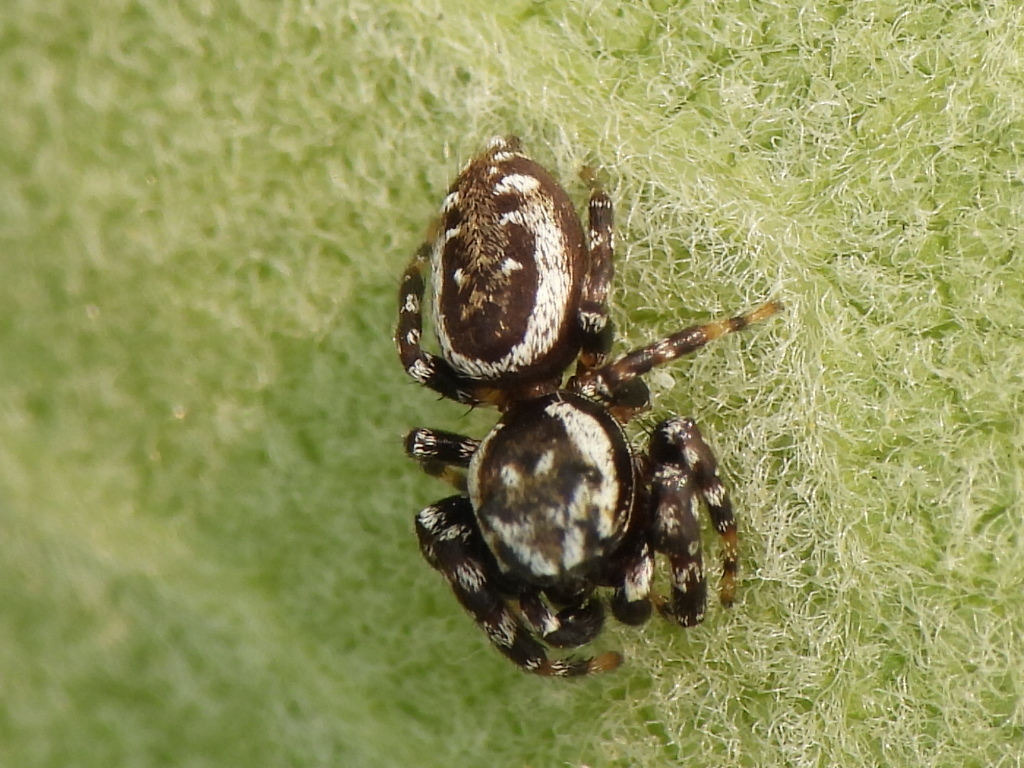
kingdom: Animalia
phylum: Arthropoda
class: Arachnida
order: Araneae
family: Salticidae
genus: Pelegrina
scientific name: Pelegrina galathea
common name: Jumping spiders
